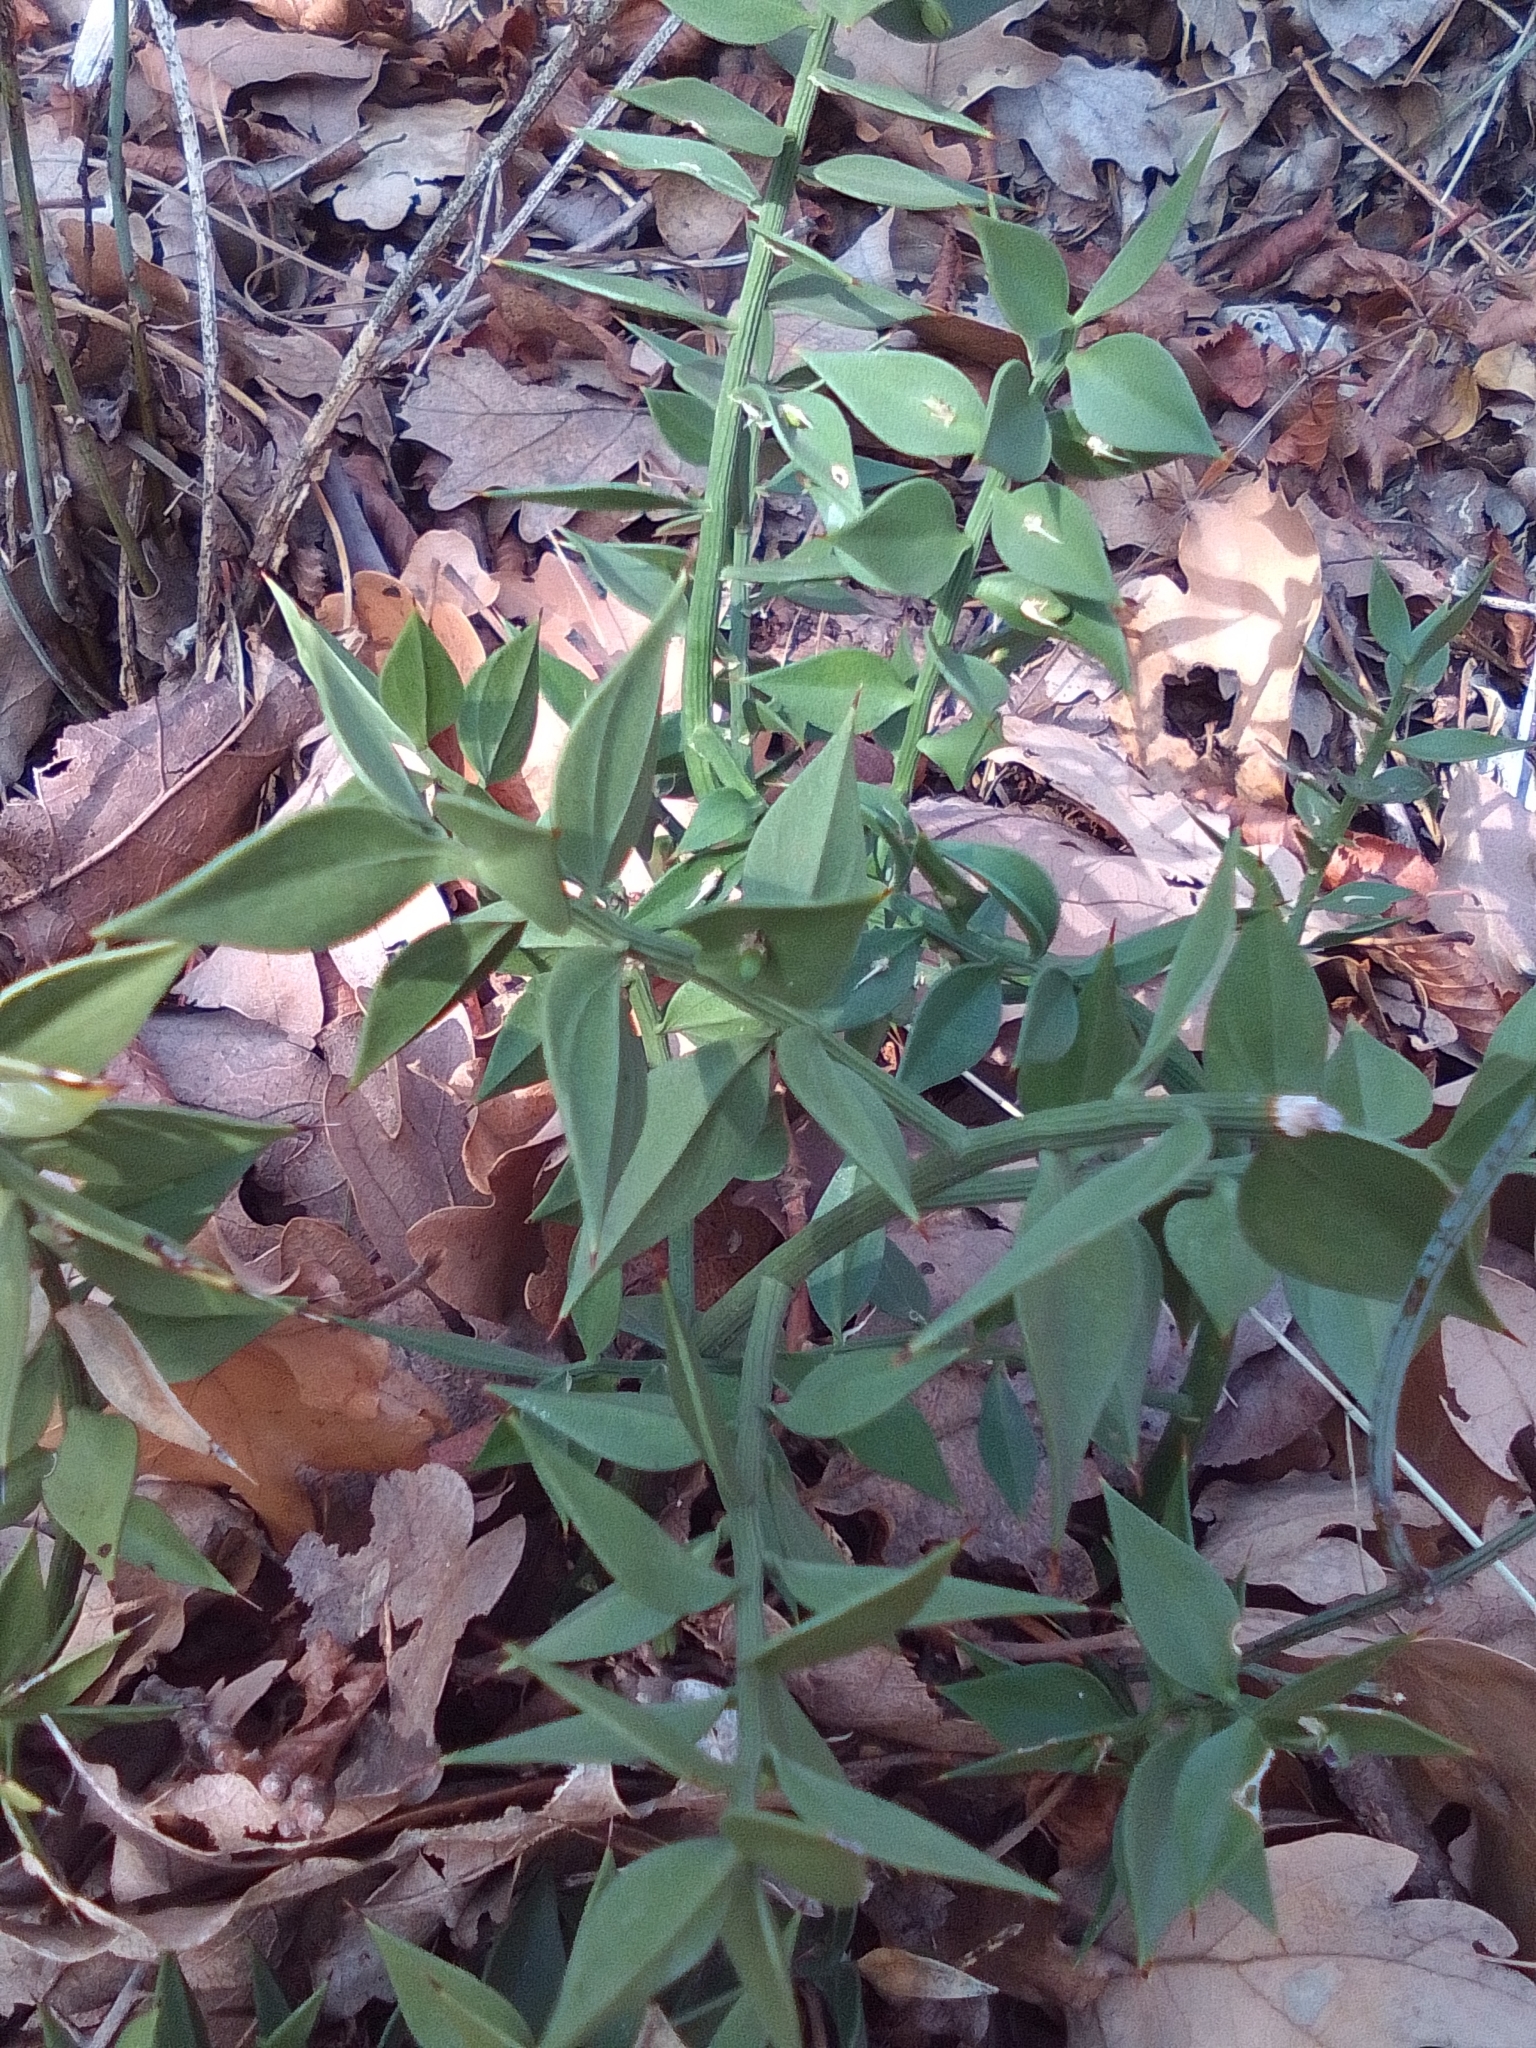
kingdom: Plantae
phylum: Tracheophyta
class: Liliopsida
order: Asparagales
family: Asparagaceae
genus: Ruscus
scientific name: Ruscus aculeatus
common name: Butcher's-broom
